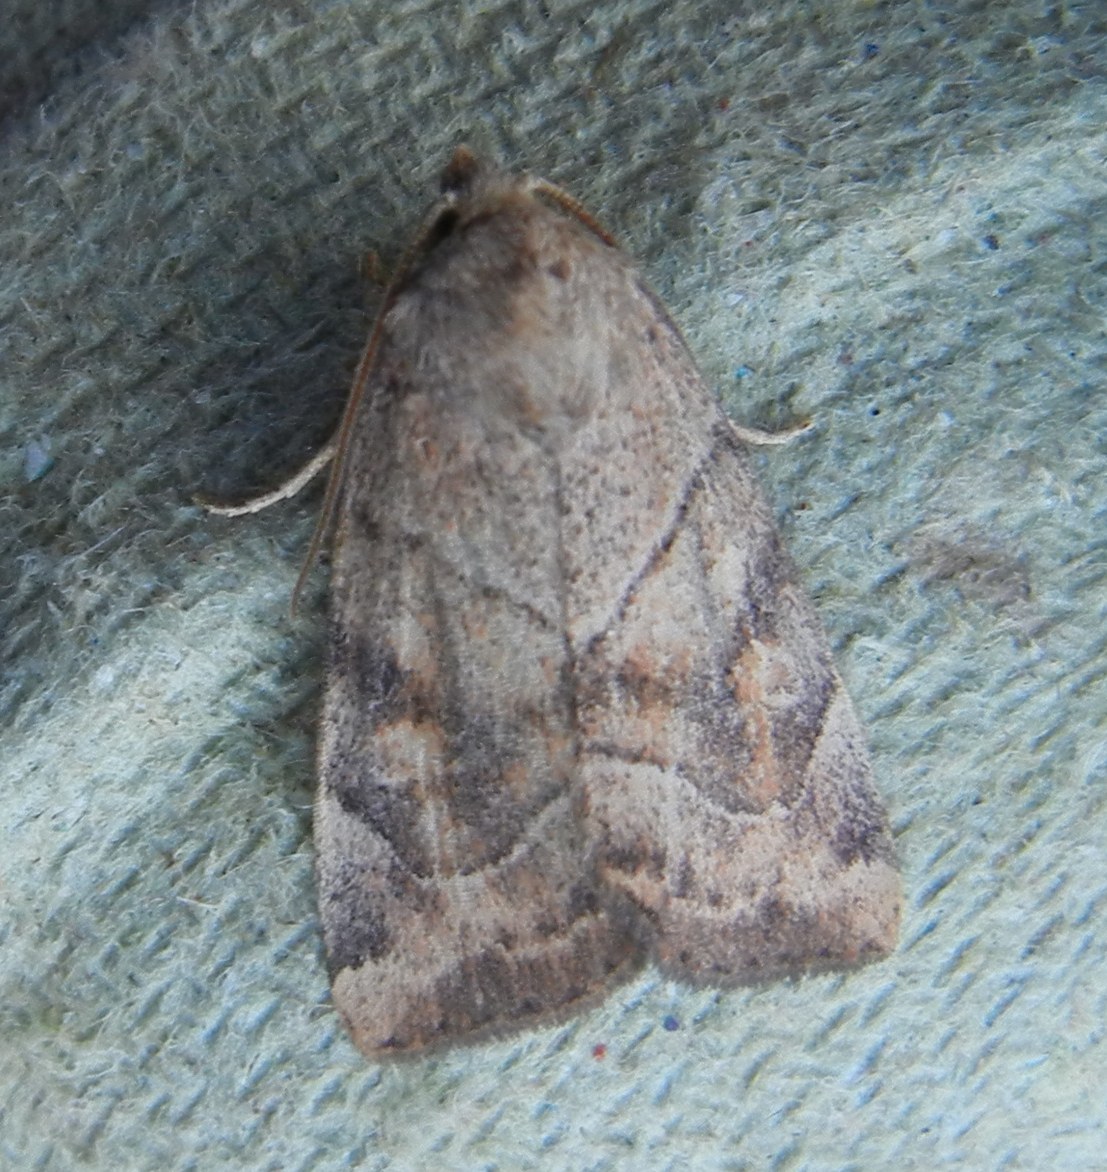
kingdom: Animalia
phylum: Arthropoda
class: Insecta
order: Lepidoptera
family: Noctuidae
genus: Cosmia
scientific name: Cosmia trapezina
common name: Dun-bar
